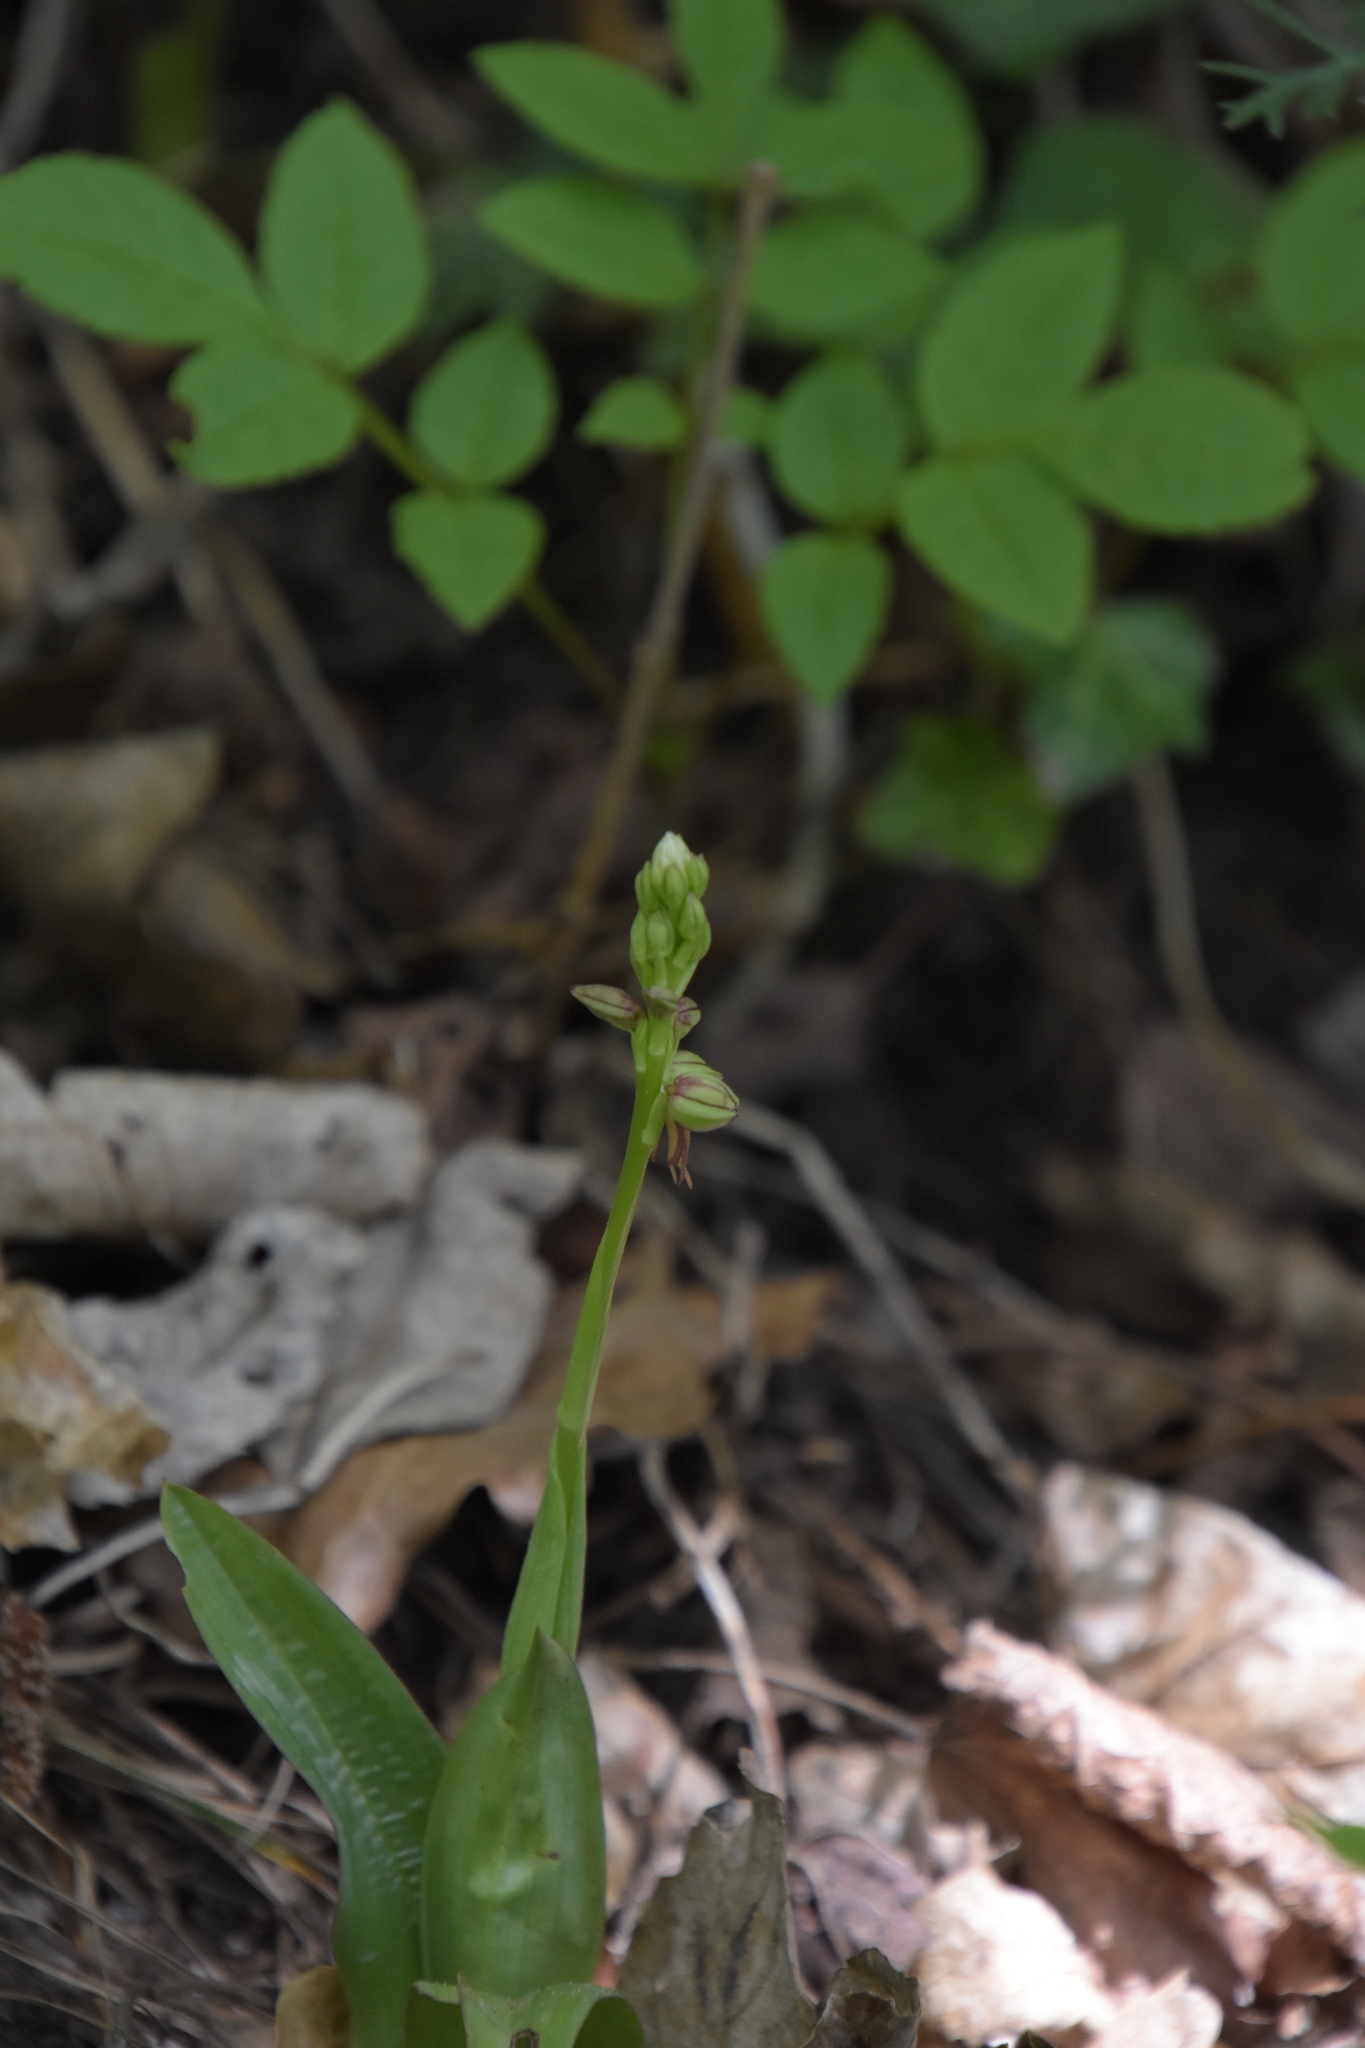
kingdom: Plantae
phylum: Tracheophyta
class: Liliopsida
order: Asparagales
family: Orchidaceae
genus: Orchis
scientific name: Orchis anthropophora
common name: Man orchid
